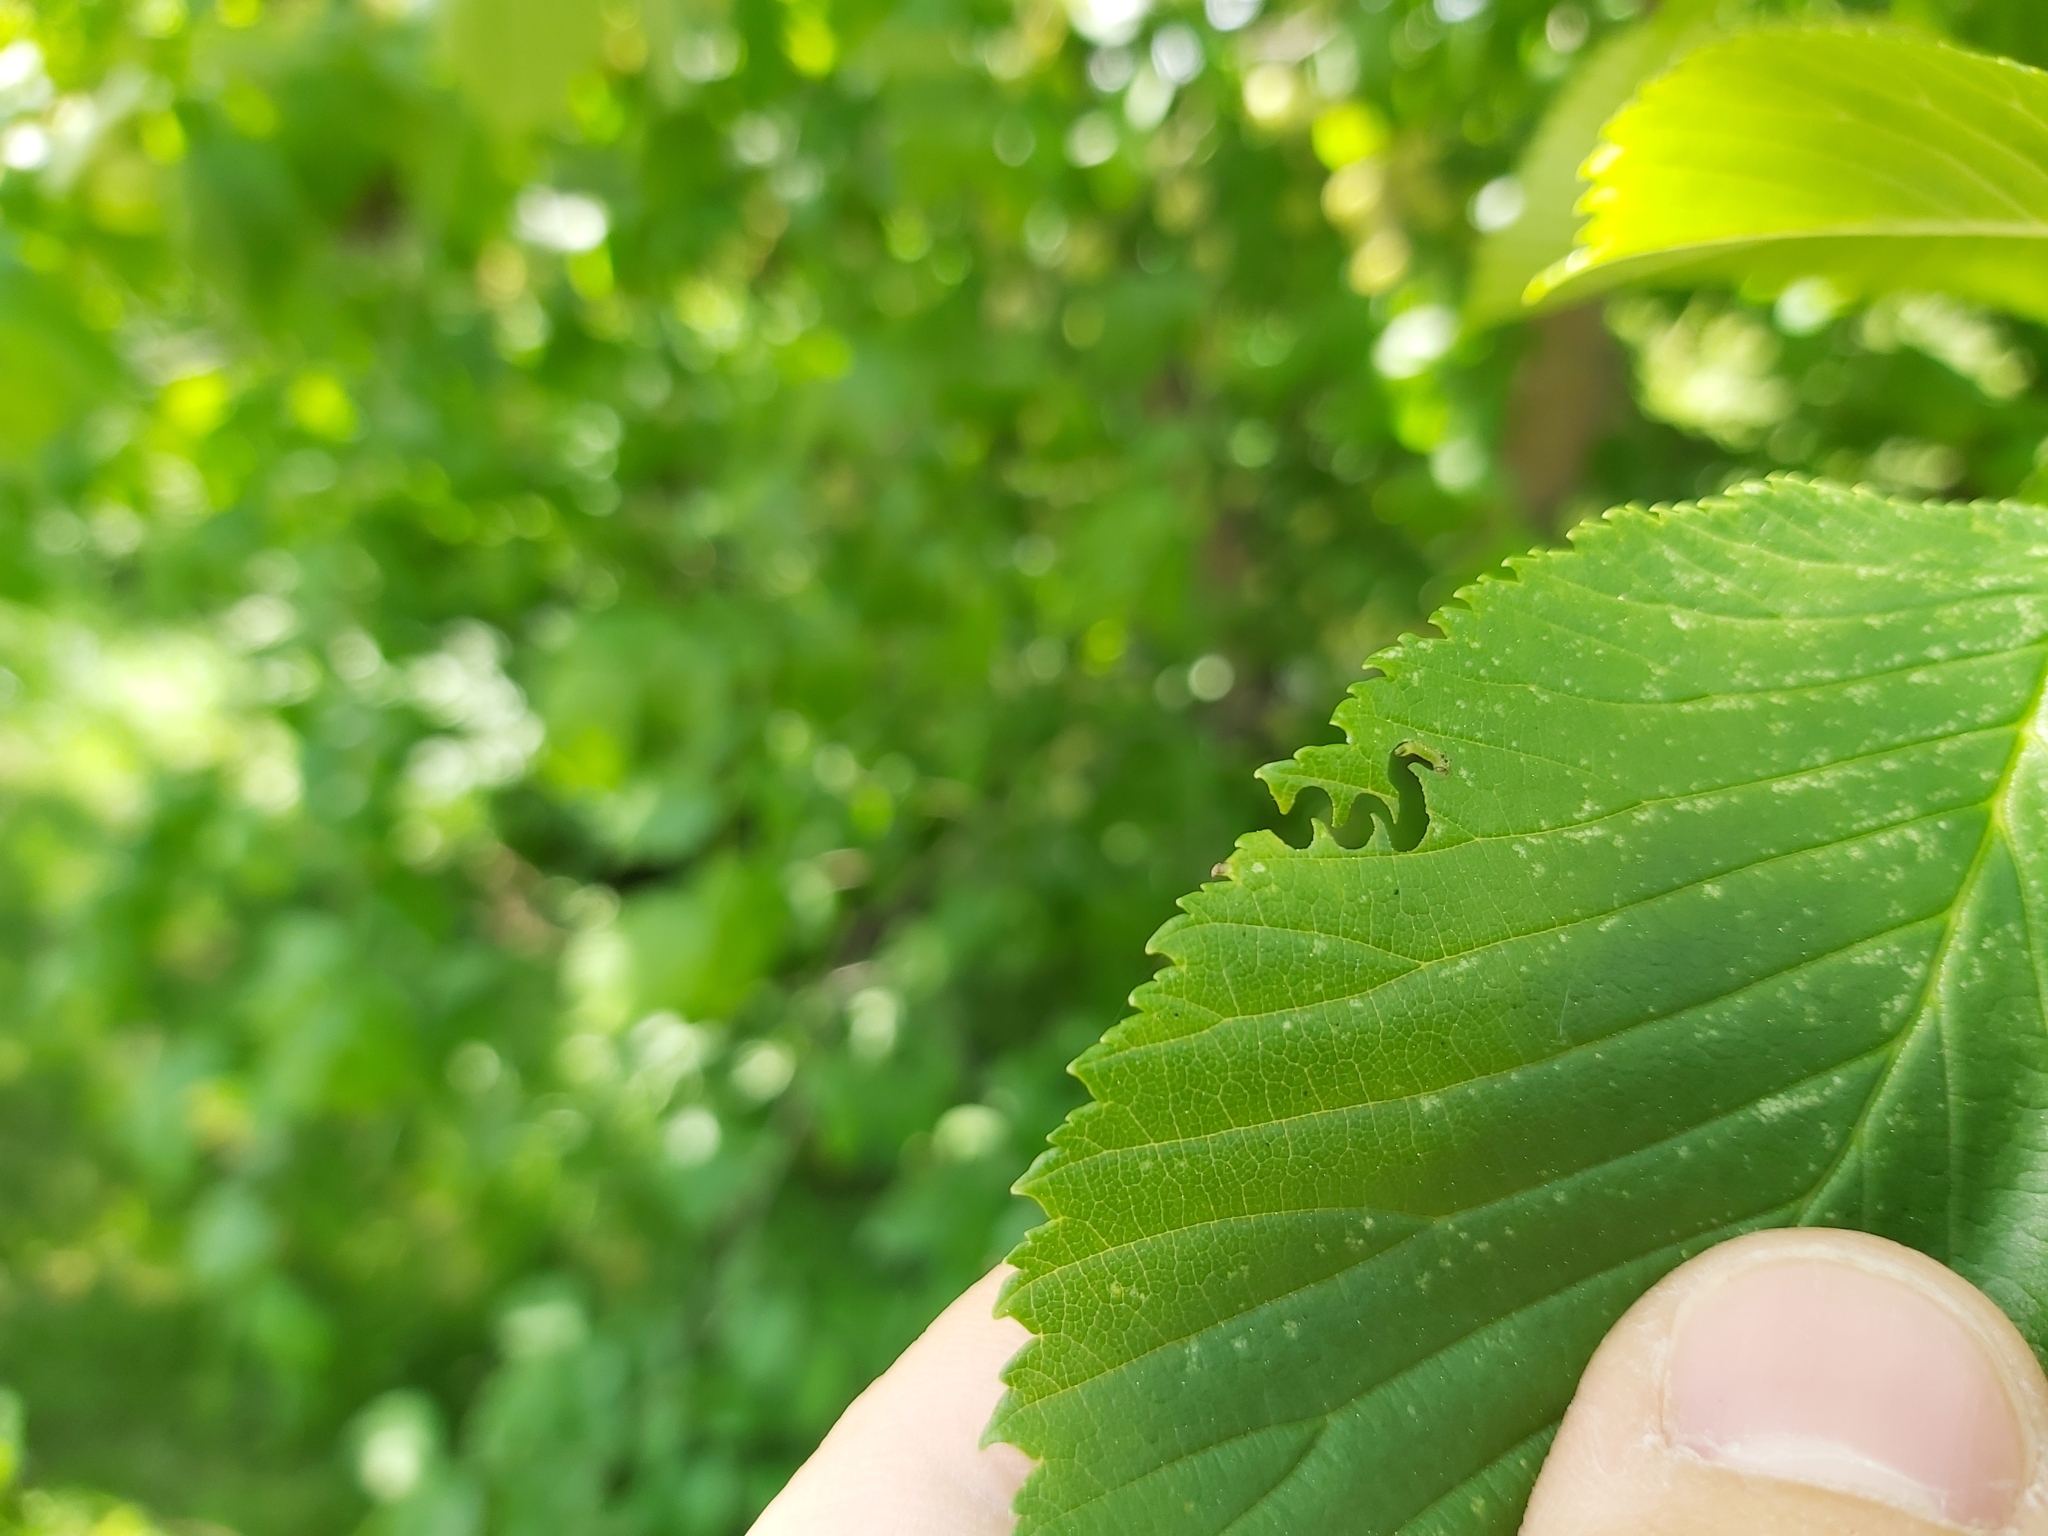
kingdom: Animalia
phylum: Arthropoda
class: Insecta
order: Hymenoptera
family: Argidae
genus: Aproceros
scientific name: Aproceros leucopoda
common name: Zig-zag elm sawfly
